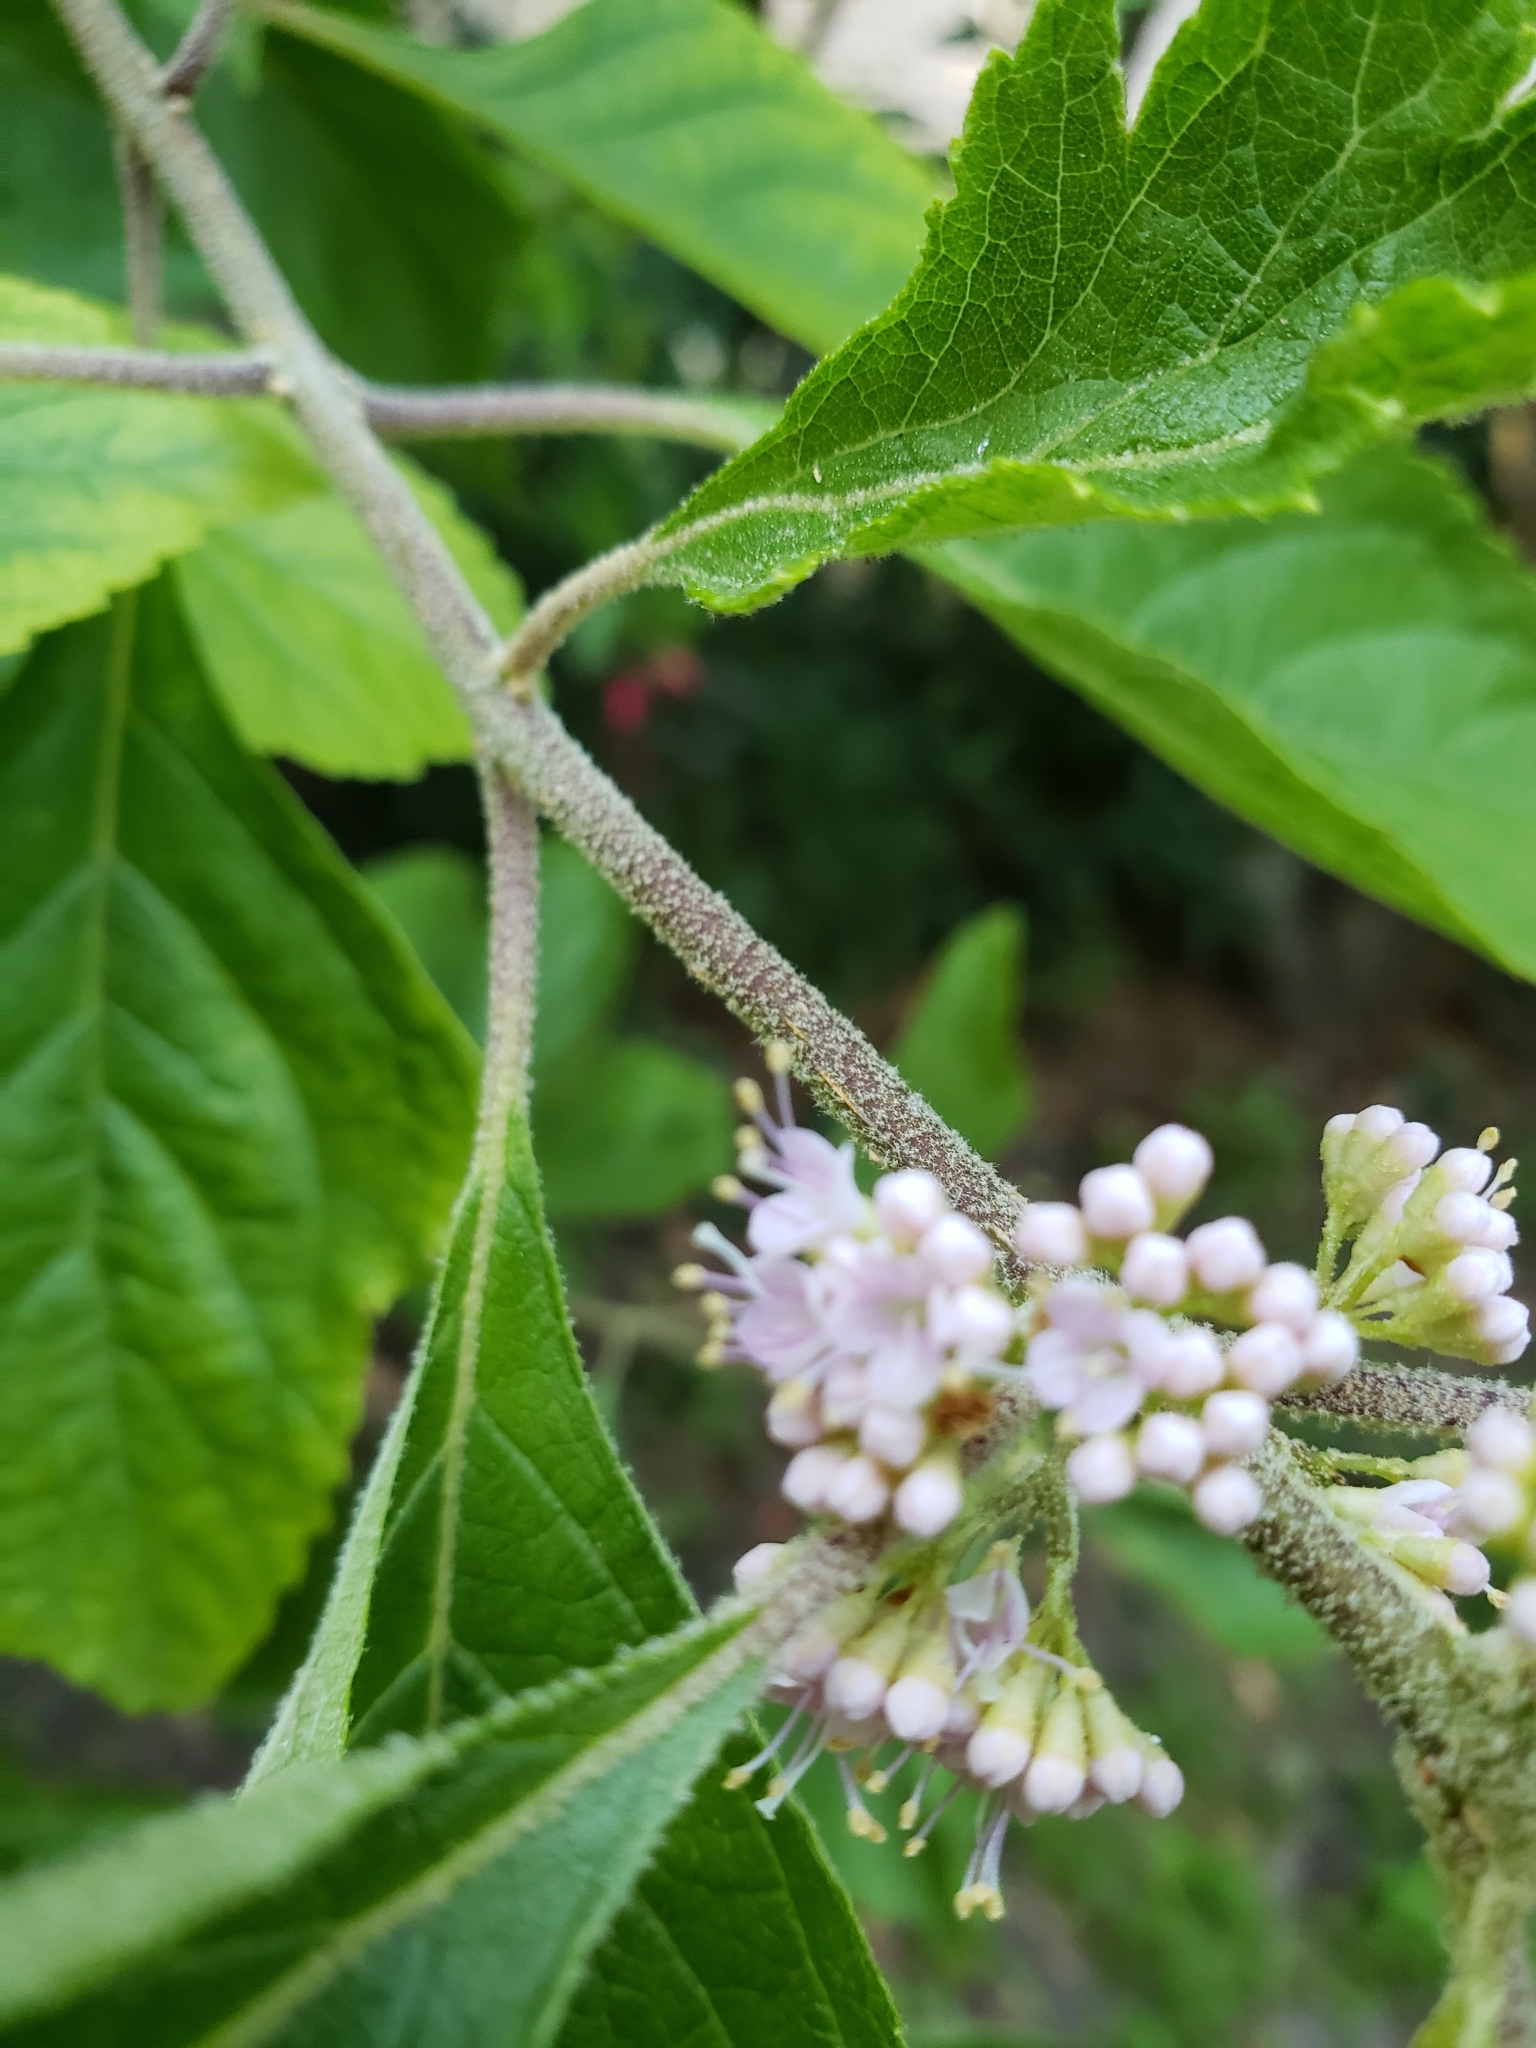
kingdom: Plantae
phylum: Tracheophyta
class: Magnoliopsida
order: Lamiales
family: Lamiaceae
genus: Callicarpa
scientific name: Callicarpa americana
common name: American beautyberry
